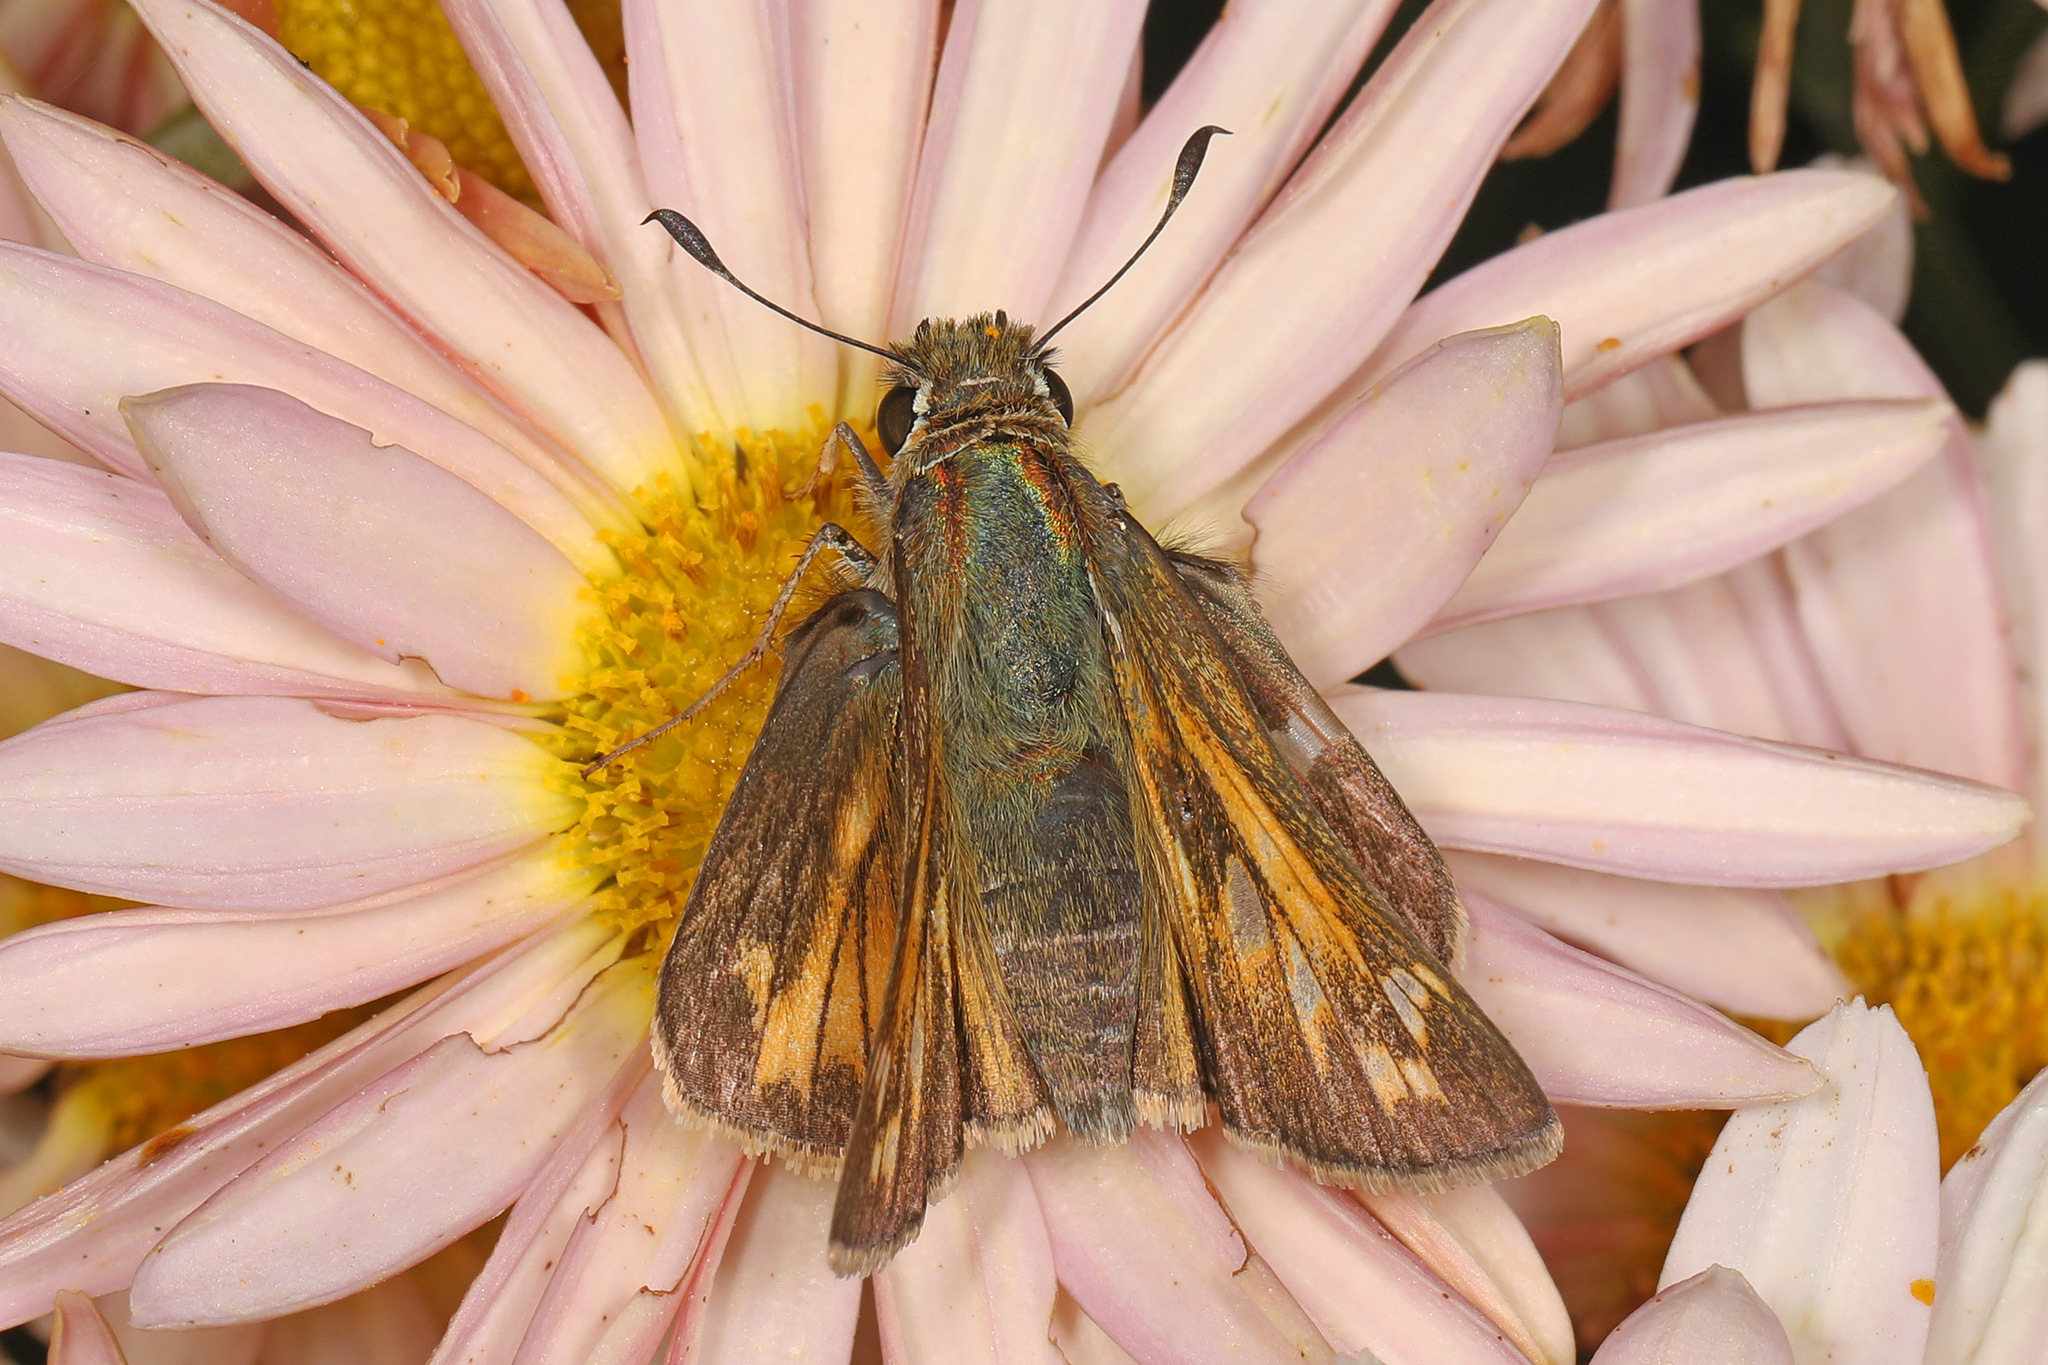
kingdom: Animalia
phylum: Arthropoda
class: Insecta
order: Lepidoptera
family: Hesperiidae
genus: Atalopedes
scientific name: Atalopedes
